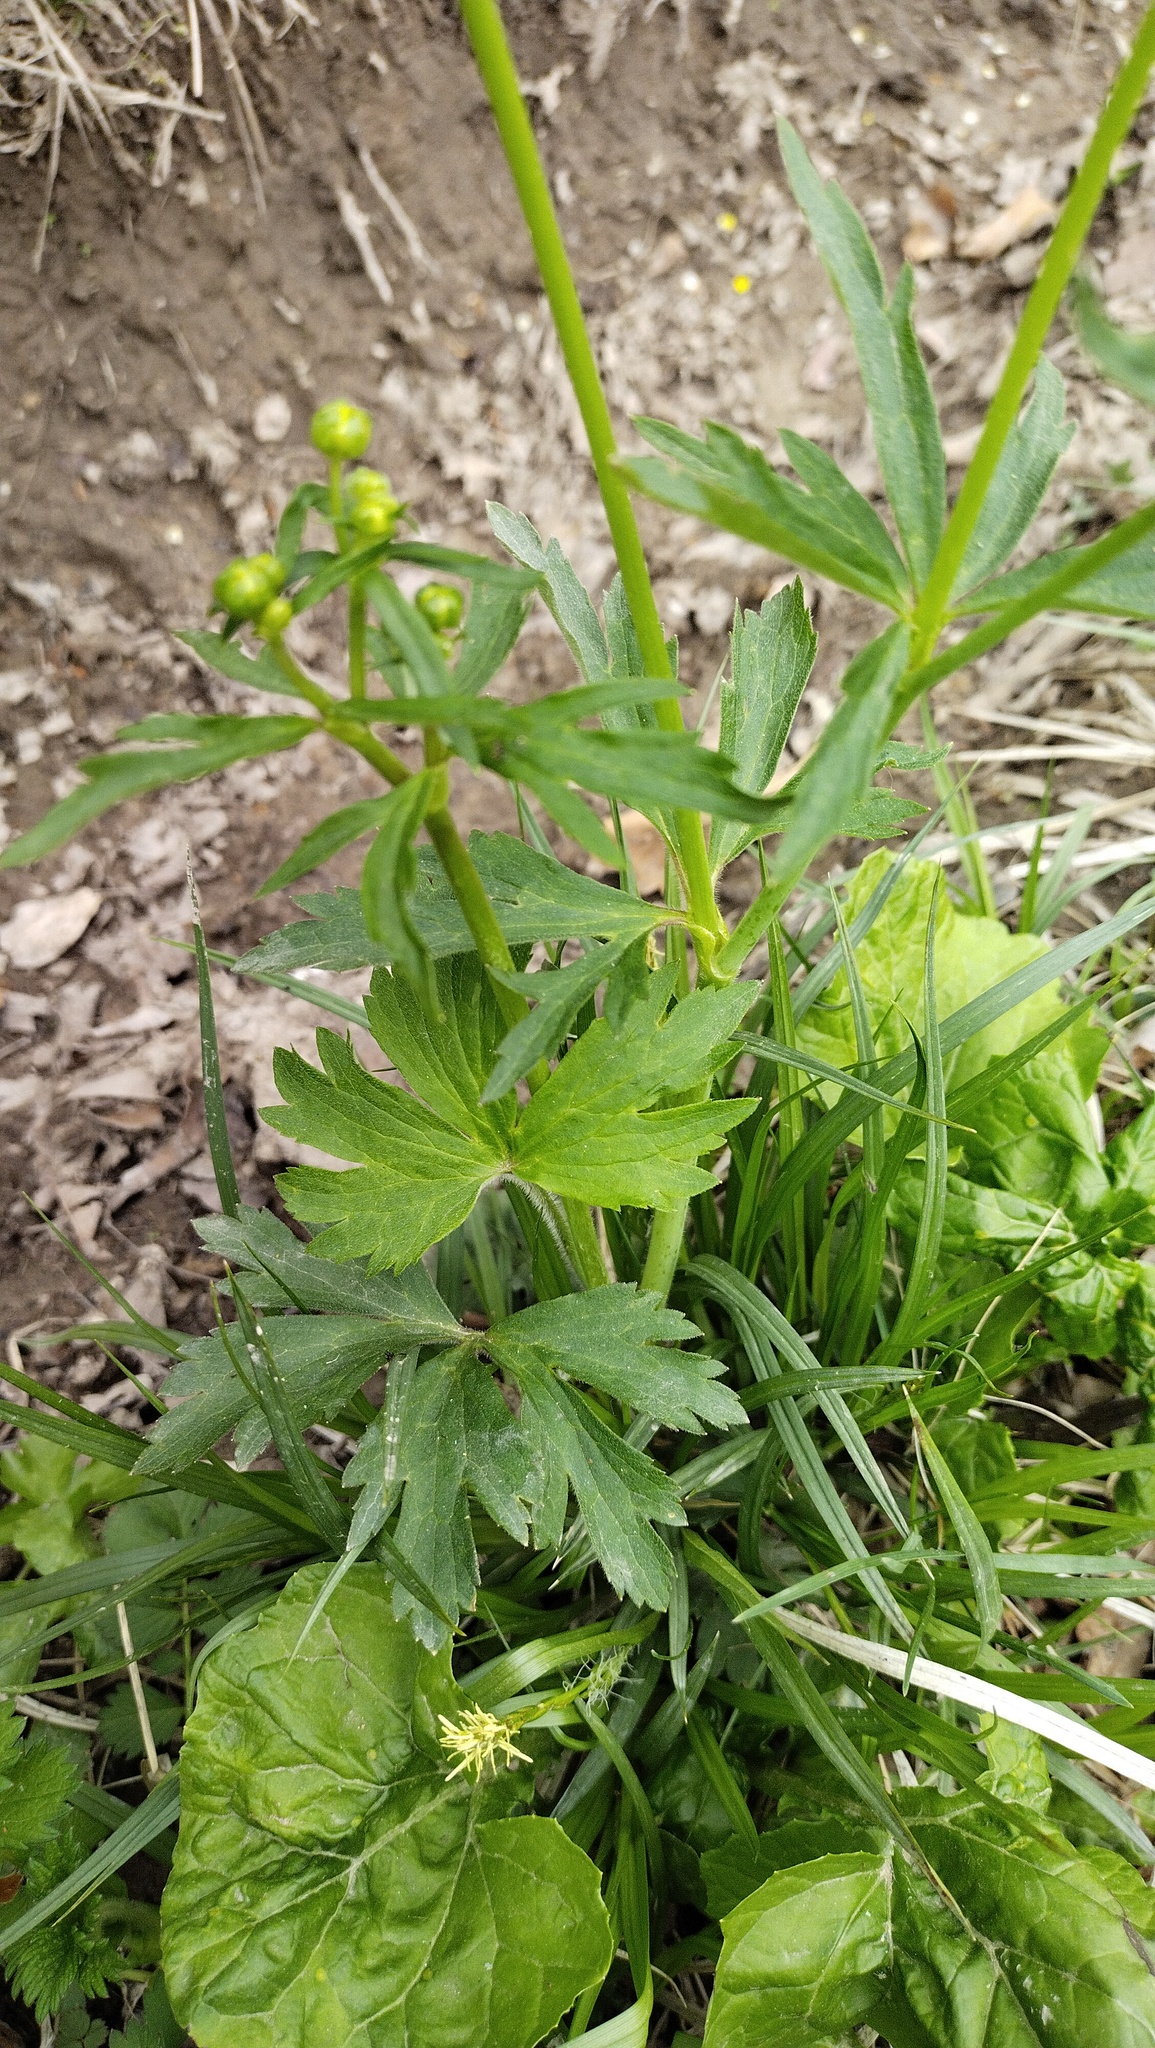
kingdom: Plantae
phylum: Tracheophyta
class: Magnoliopsida
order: Ranunculales
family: Ranunculaceae
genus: Ranunculus
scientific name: Ranunculus japonicus
